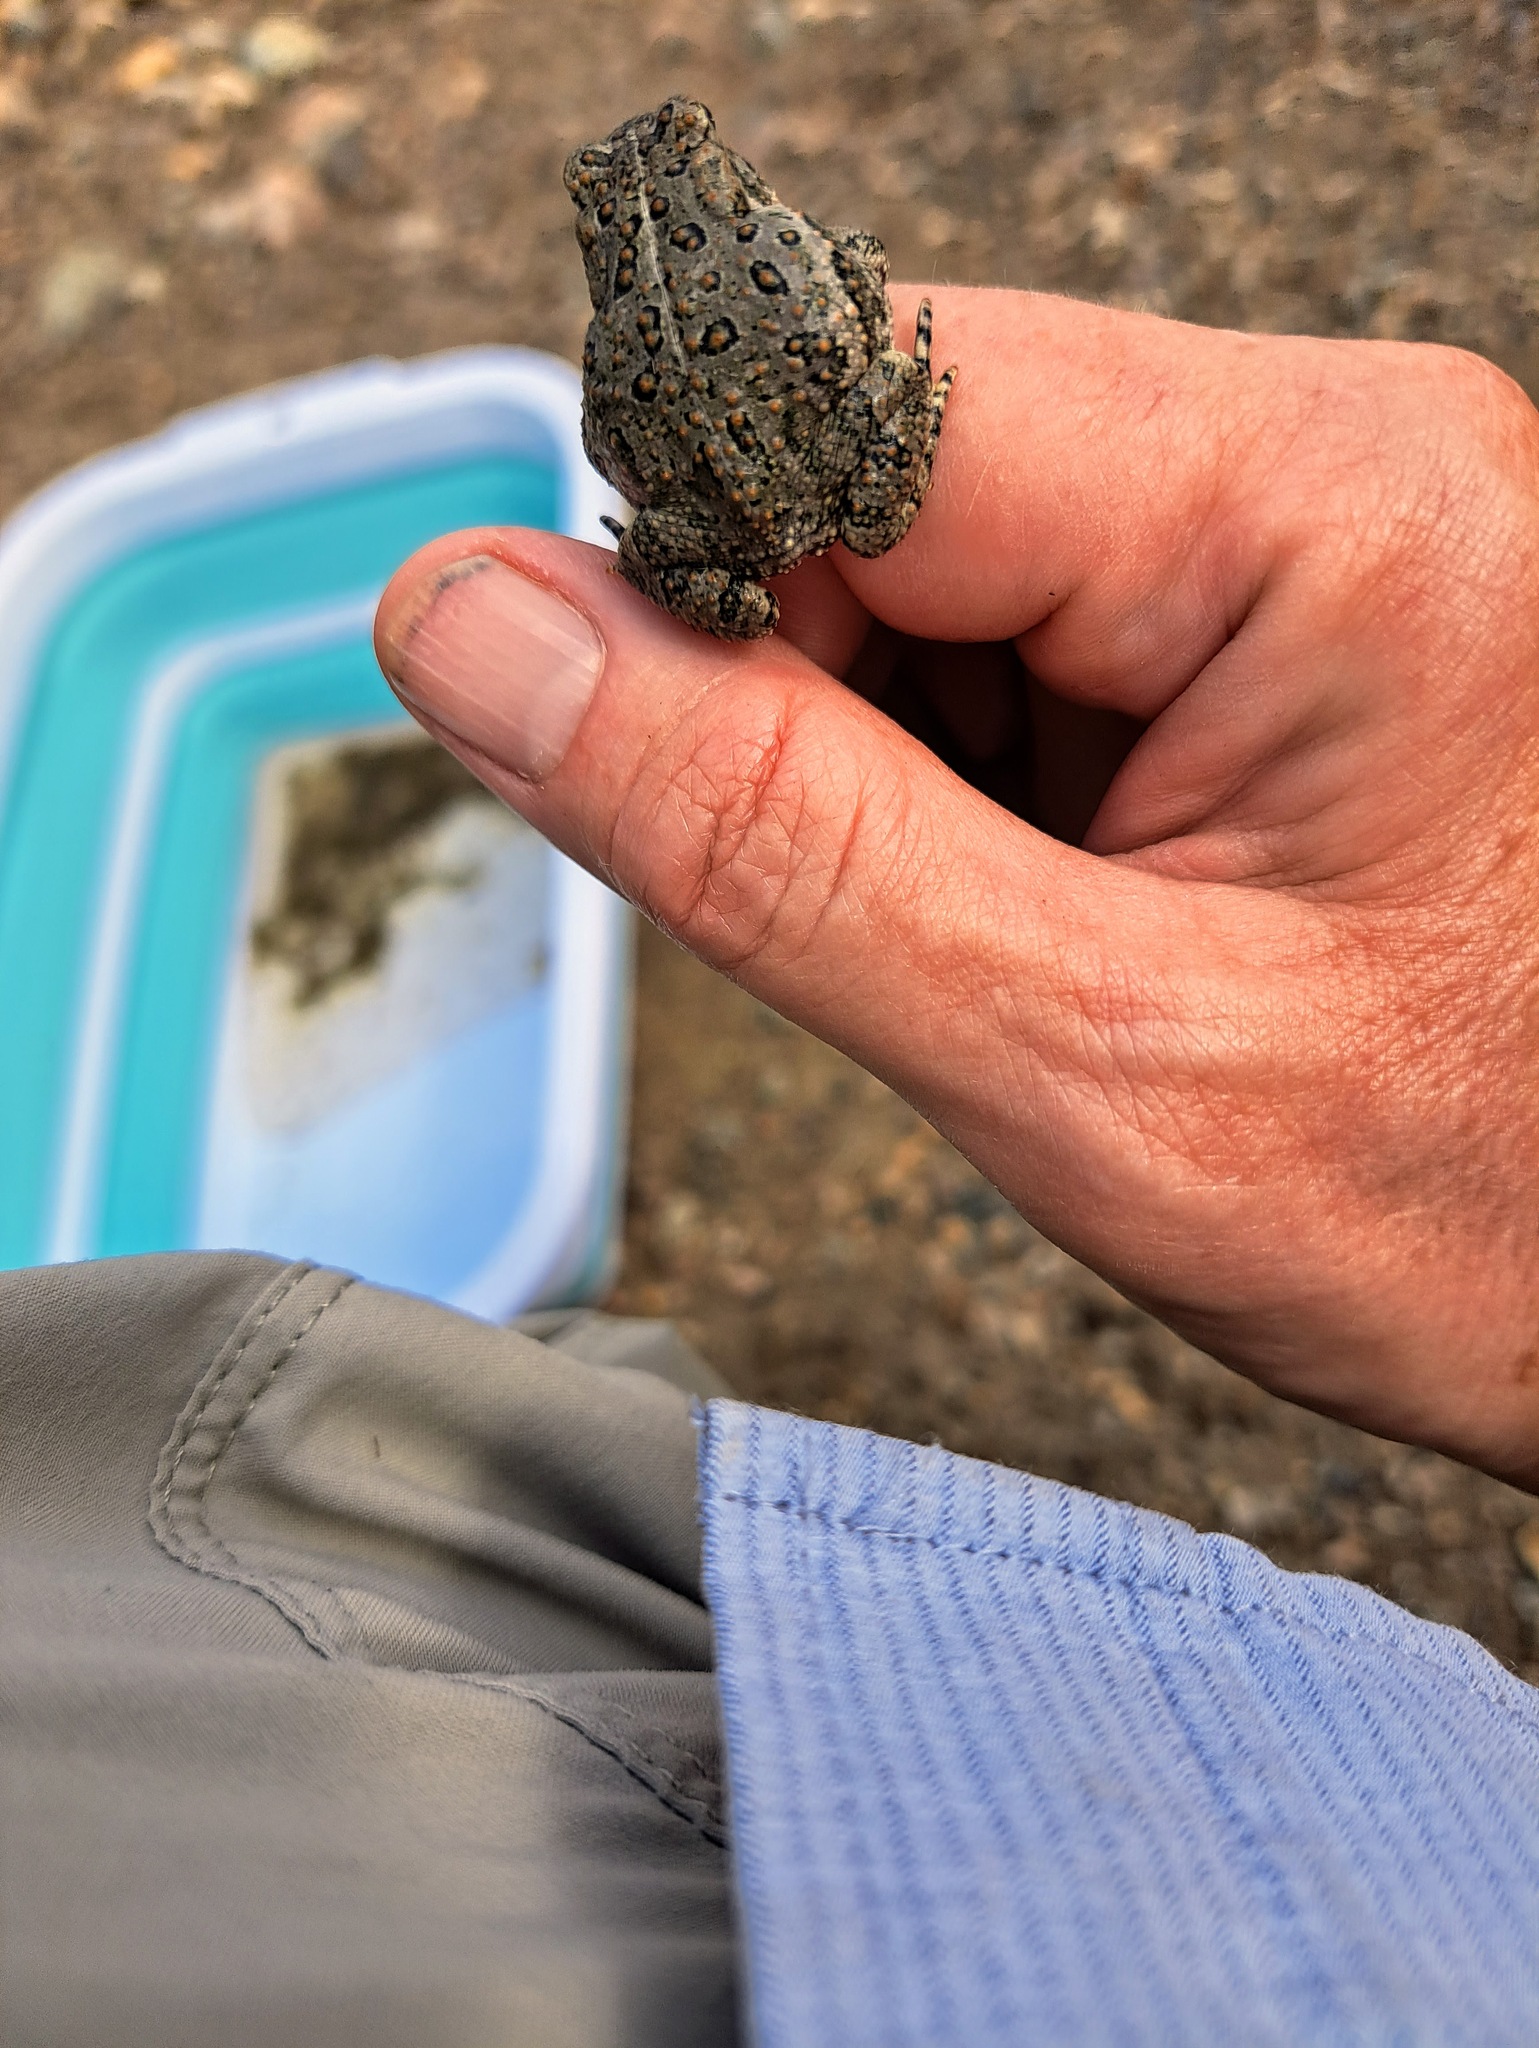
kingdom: Animalia
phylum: Chordata
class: Amphibia
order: Anura
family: Bufonidae
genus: Anaxyrus
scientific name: Anaxyrus woodhousii
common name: Woodhouse's toad
